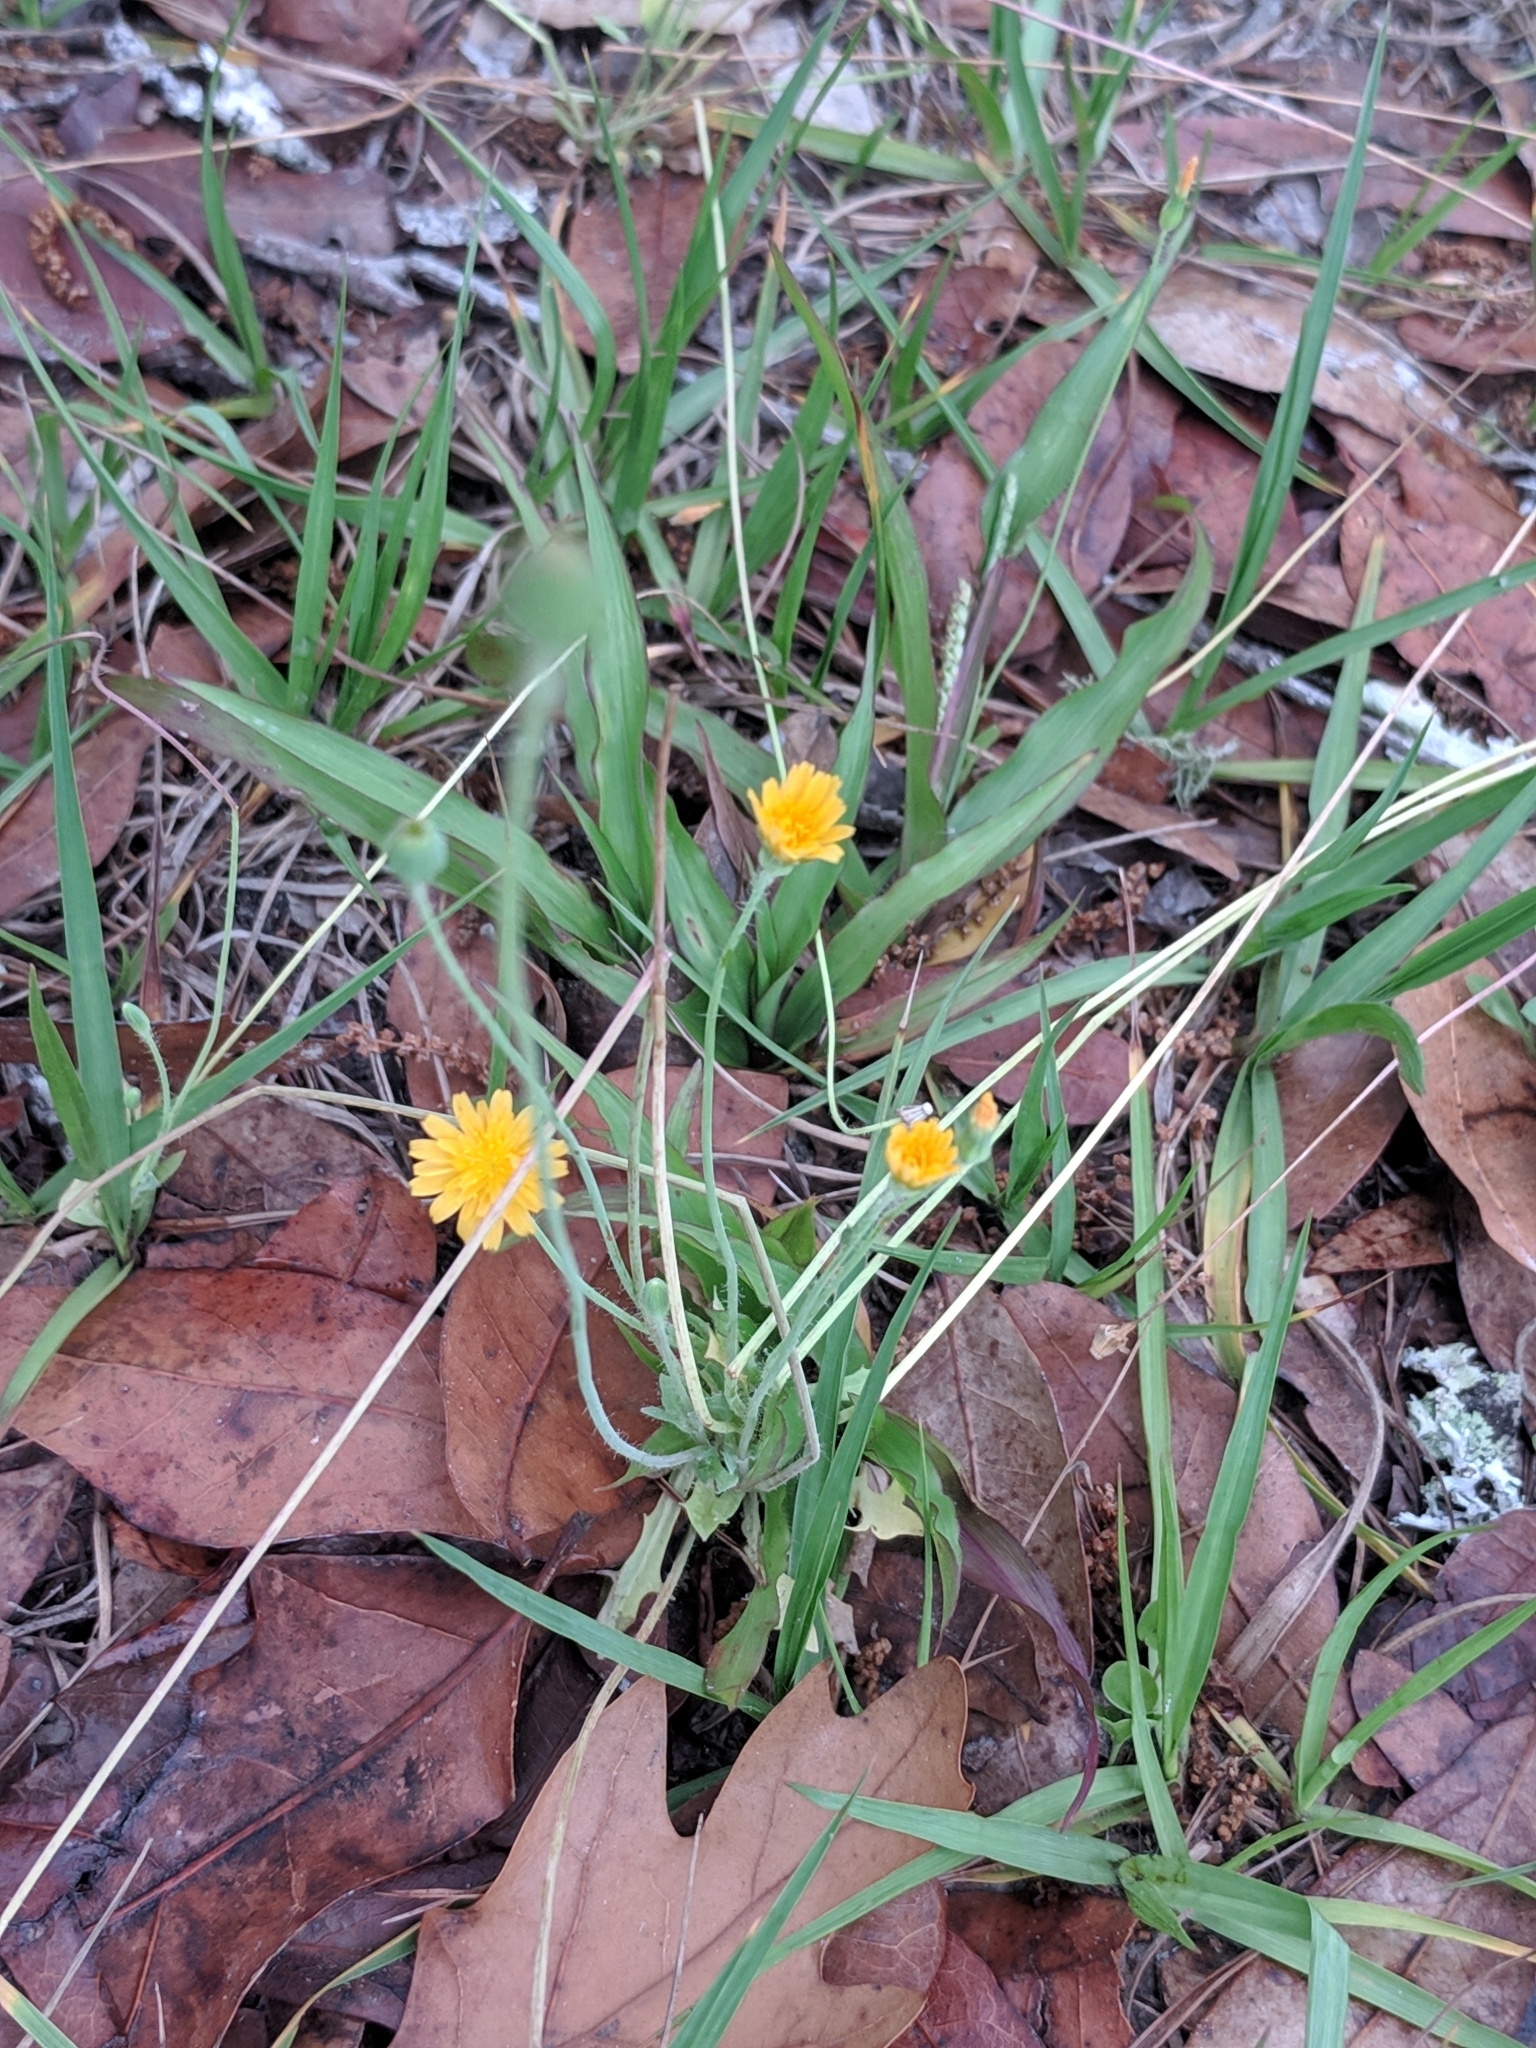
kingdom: Plantae
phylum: Tracheophyta
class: Magnoliopsida
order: Asterales
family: Asteraceae
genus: Krigia
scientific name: Krigia virginica
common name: Virginia dwarf-dandelion
